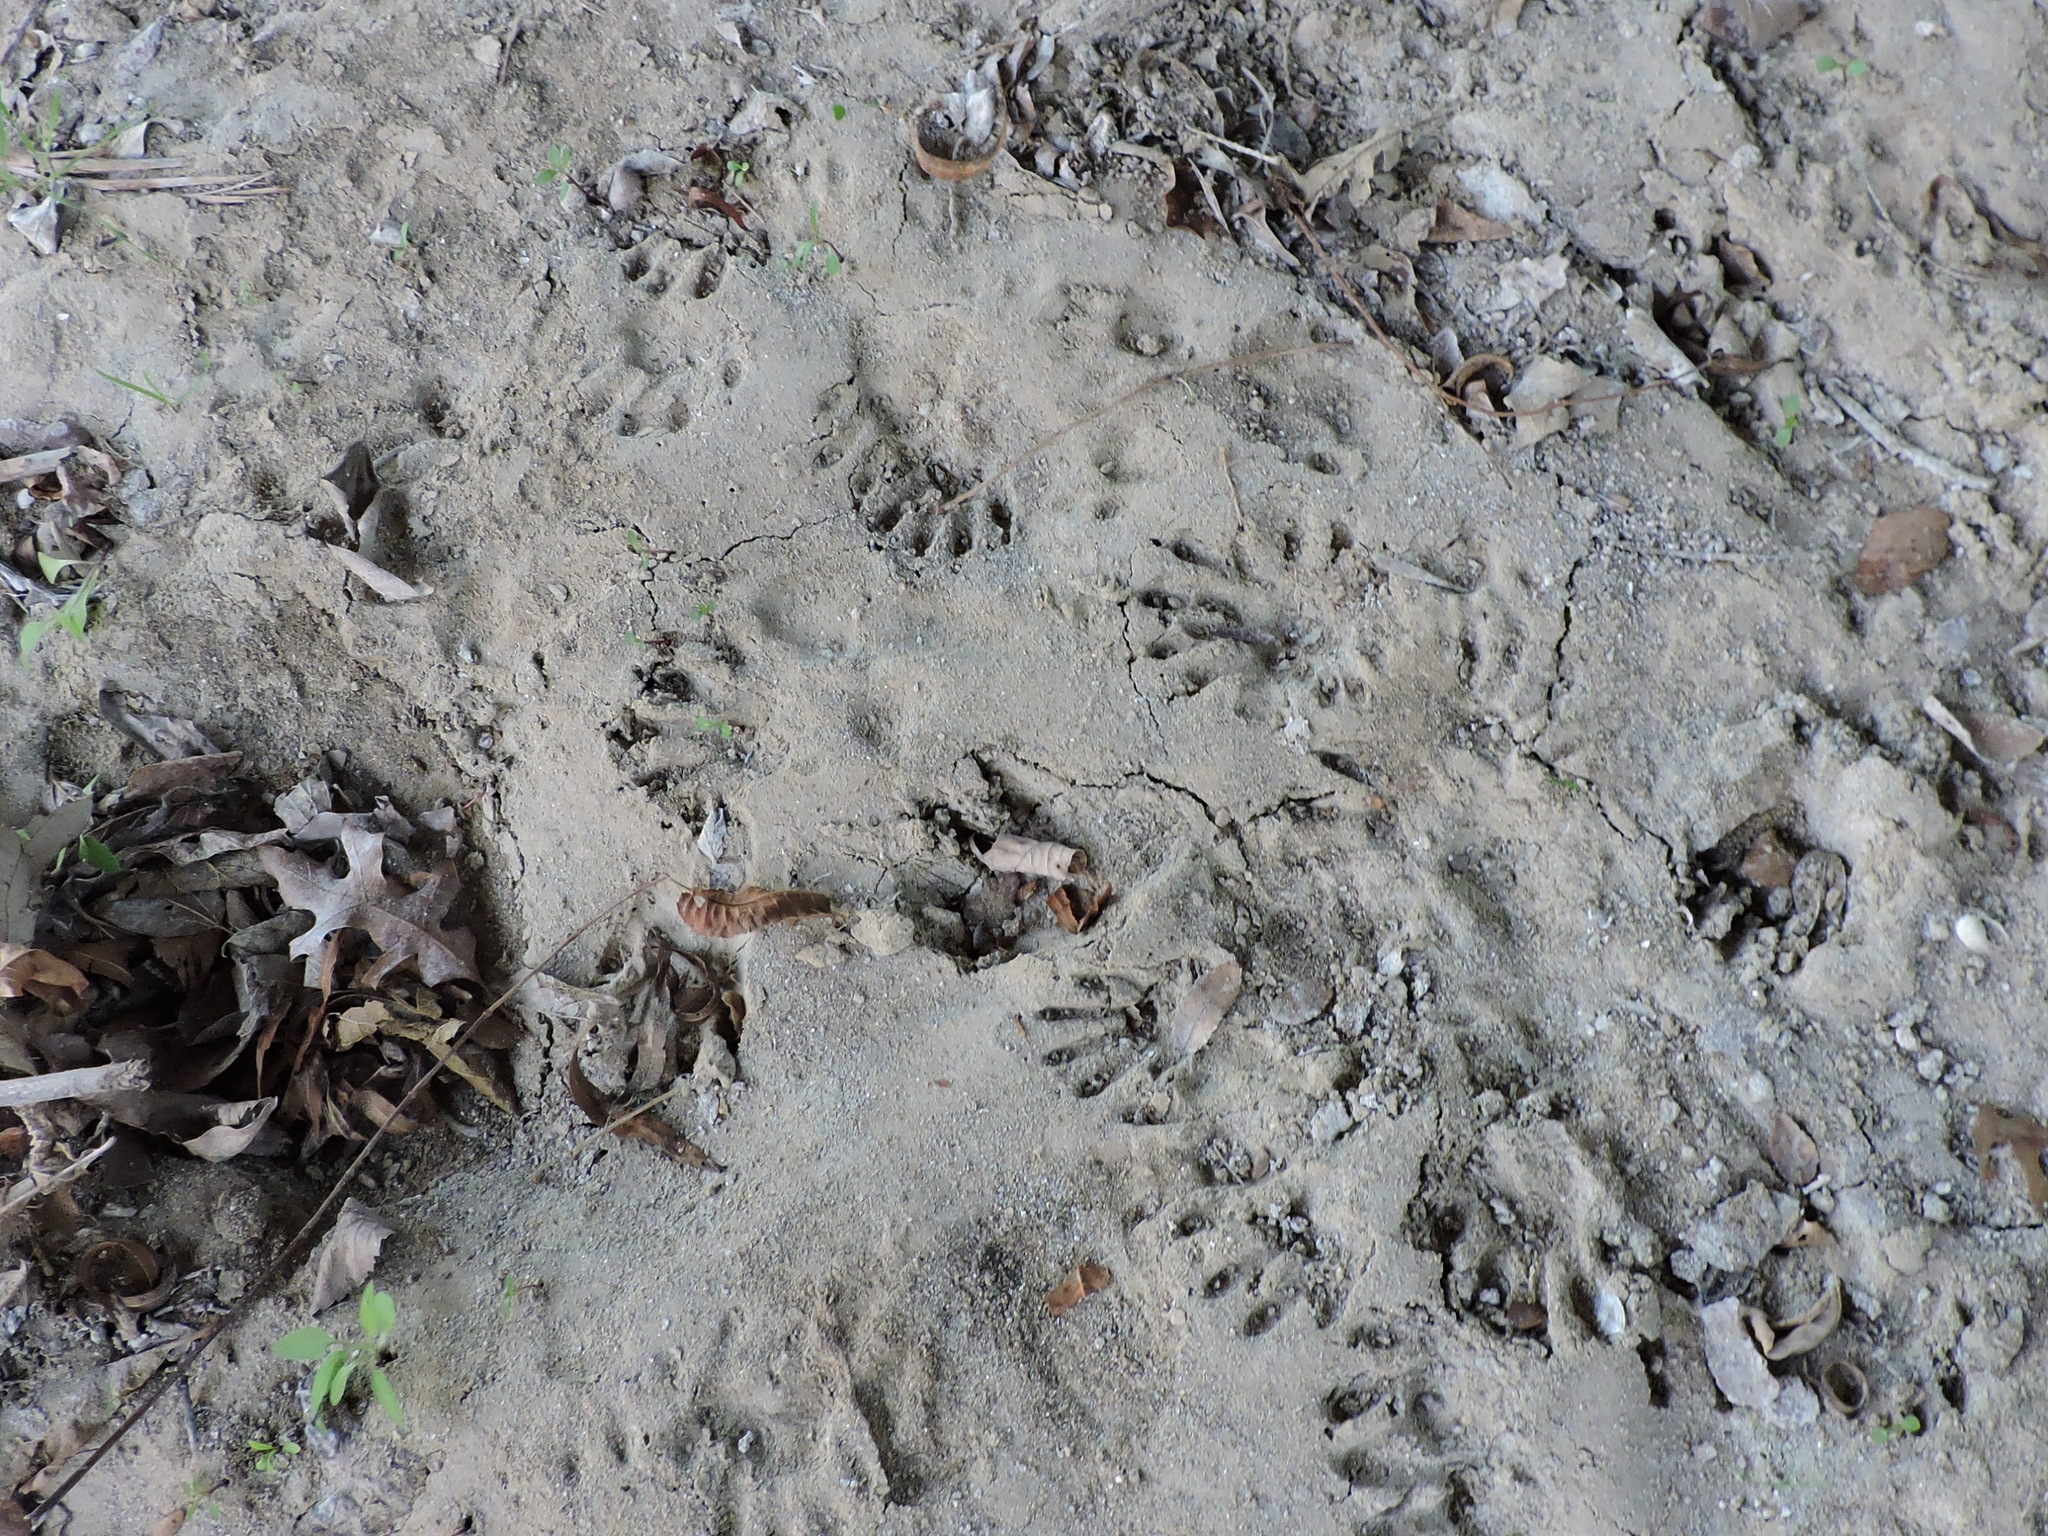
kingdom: Animalia
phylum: Chordata
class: Mammalia
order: Carnivora
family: Procyonidae
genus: Procyon
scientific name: Procyon lotor
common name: Raccoon
